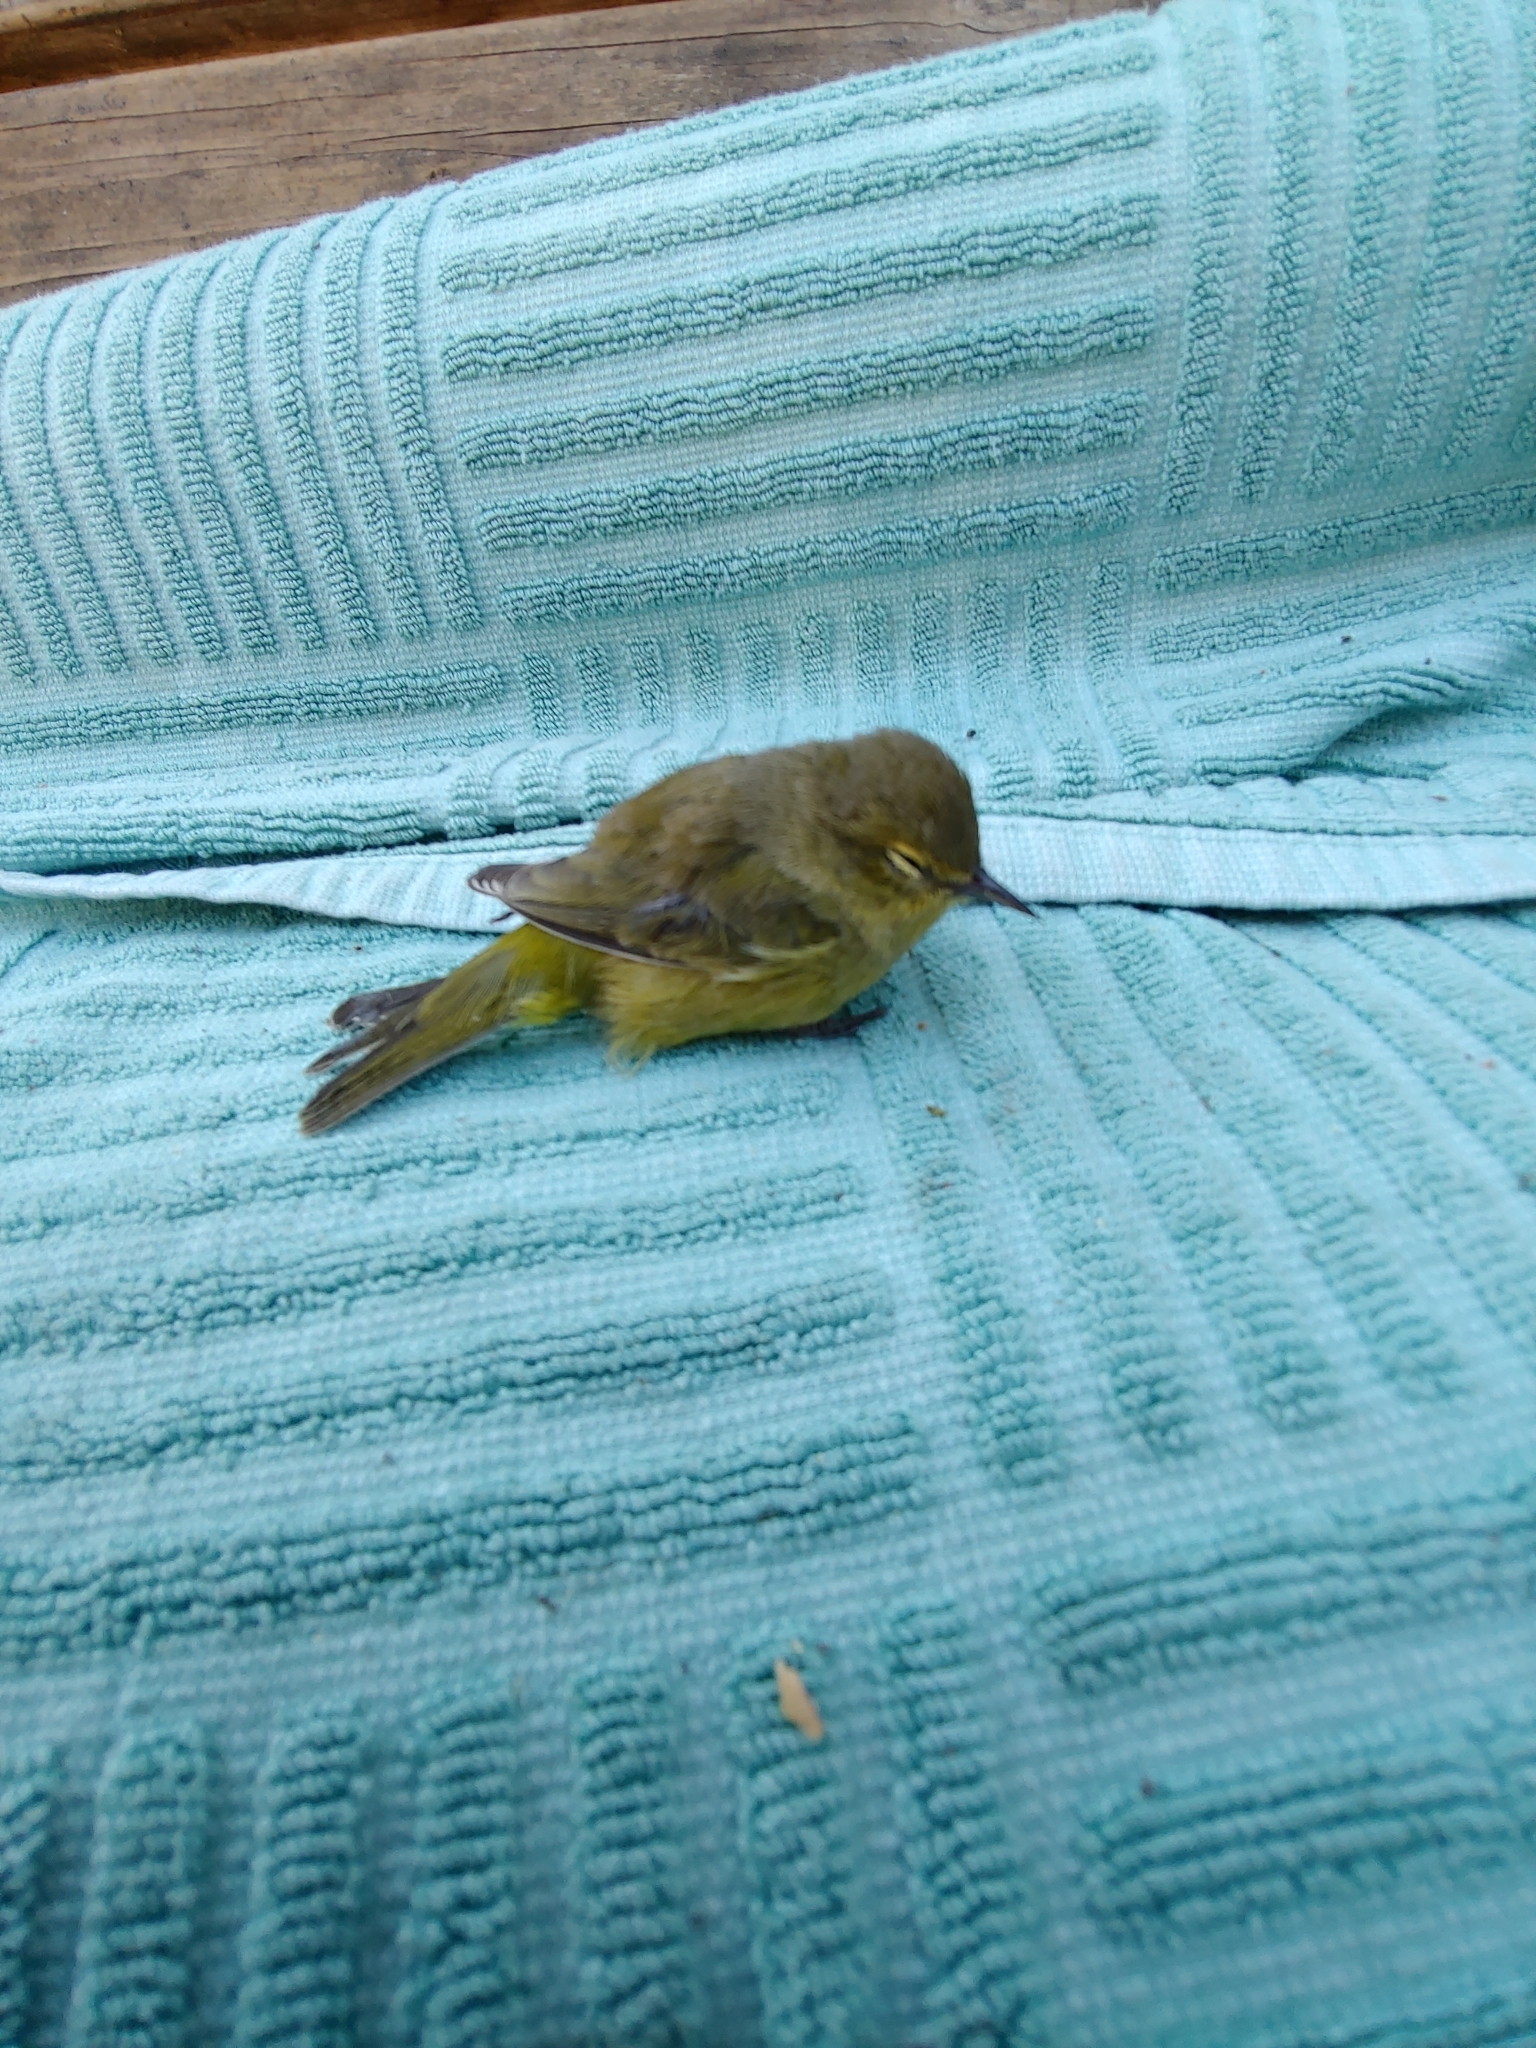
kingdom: Animalia
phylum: Chordata
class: Aves
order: Passeriformes
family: Parulidae
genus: Leiothlypis
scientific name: Leiothlypis celata
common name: Orange-crowned warbler
